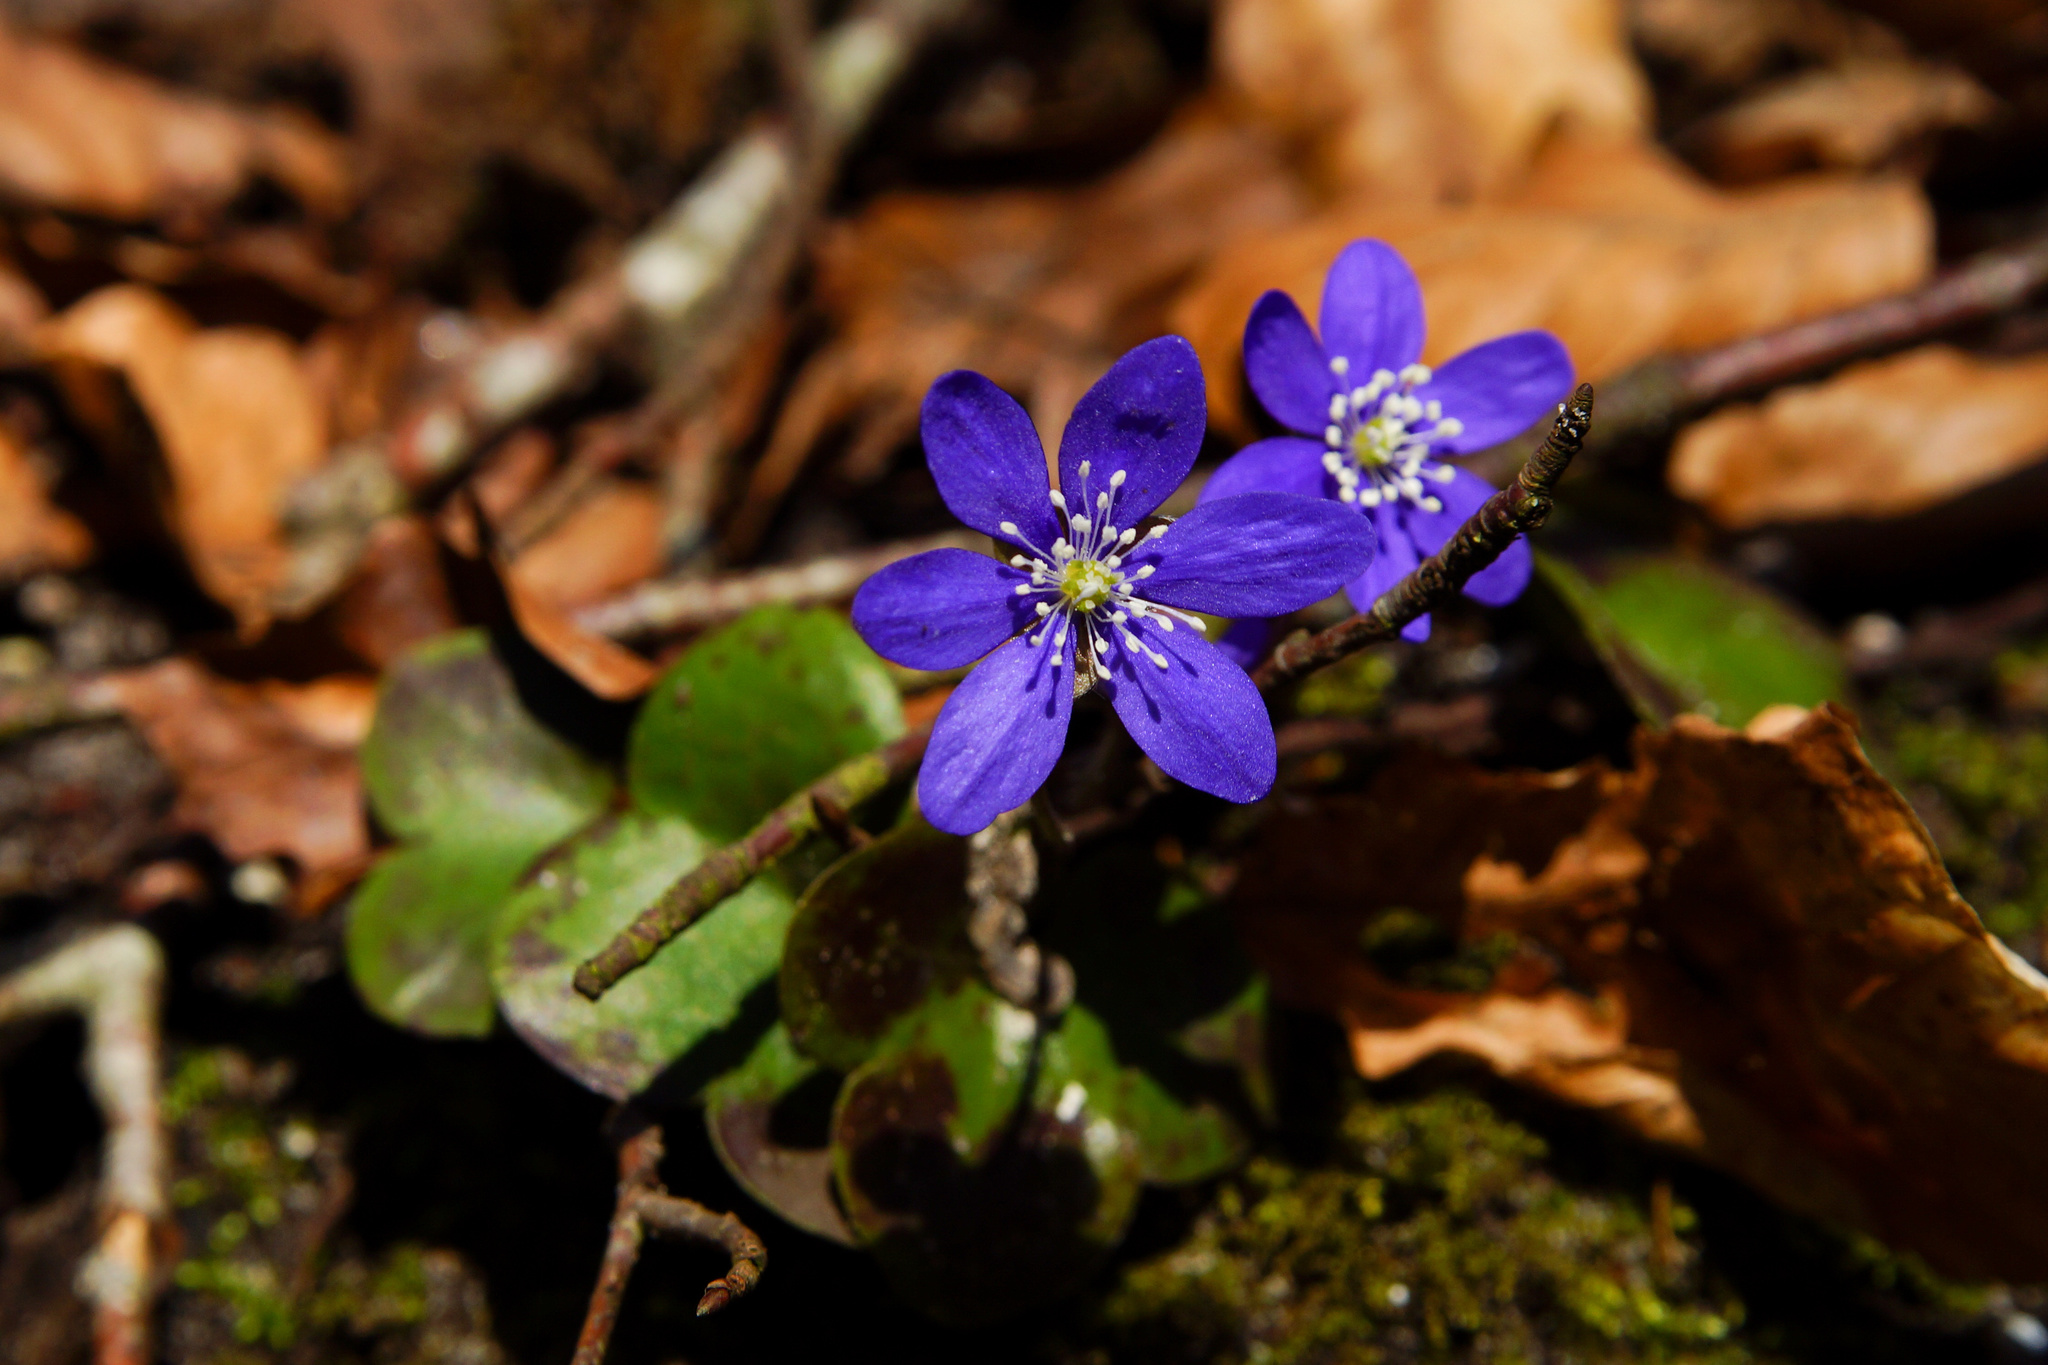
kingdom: Plantae
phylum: Tracheophyta
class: Magnoliopsida
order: Ranunculales
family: Ranunculaceae
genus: Hepatica
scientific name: Hepatica nobilis
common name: Liverleaf
